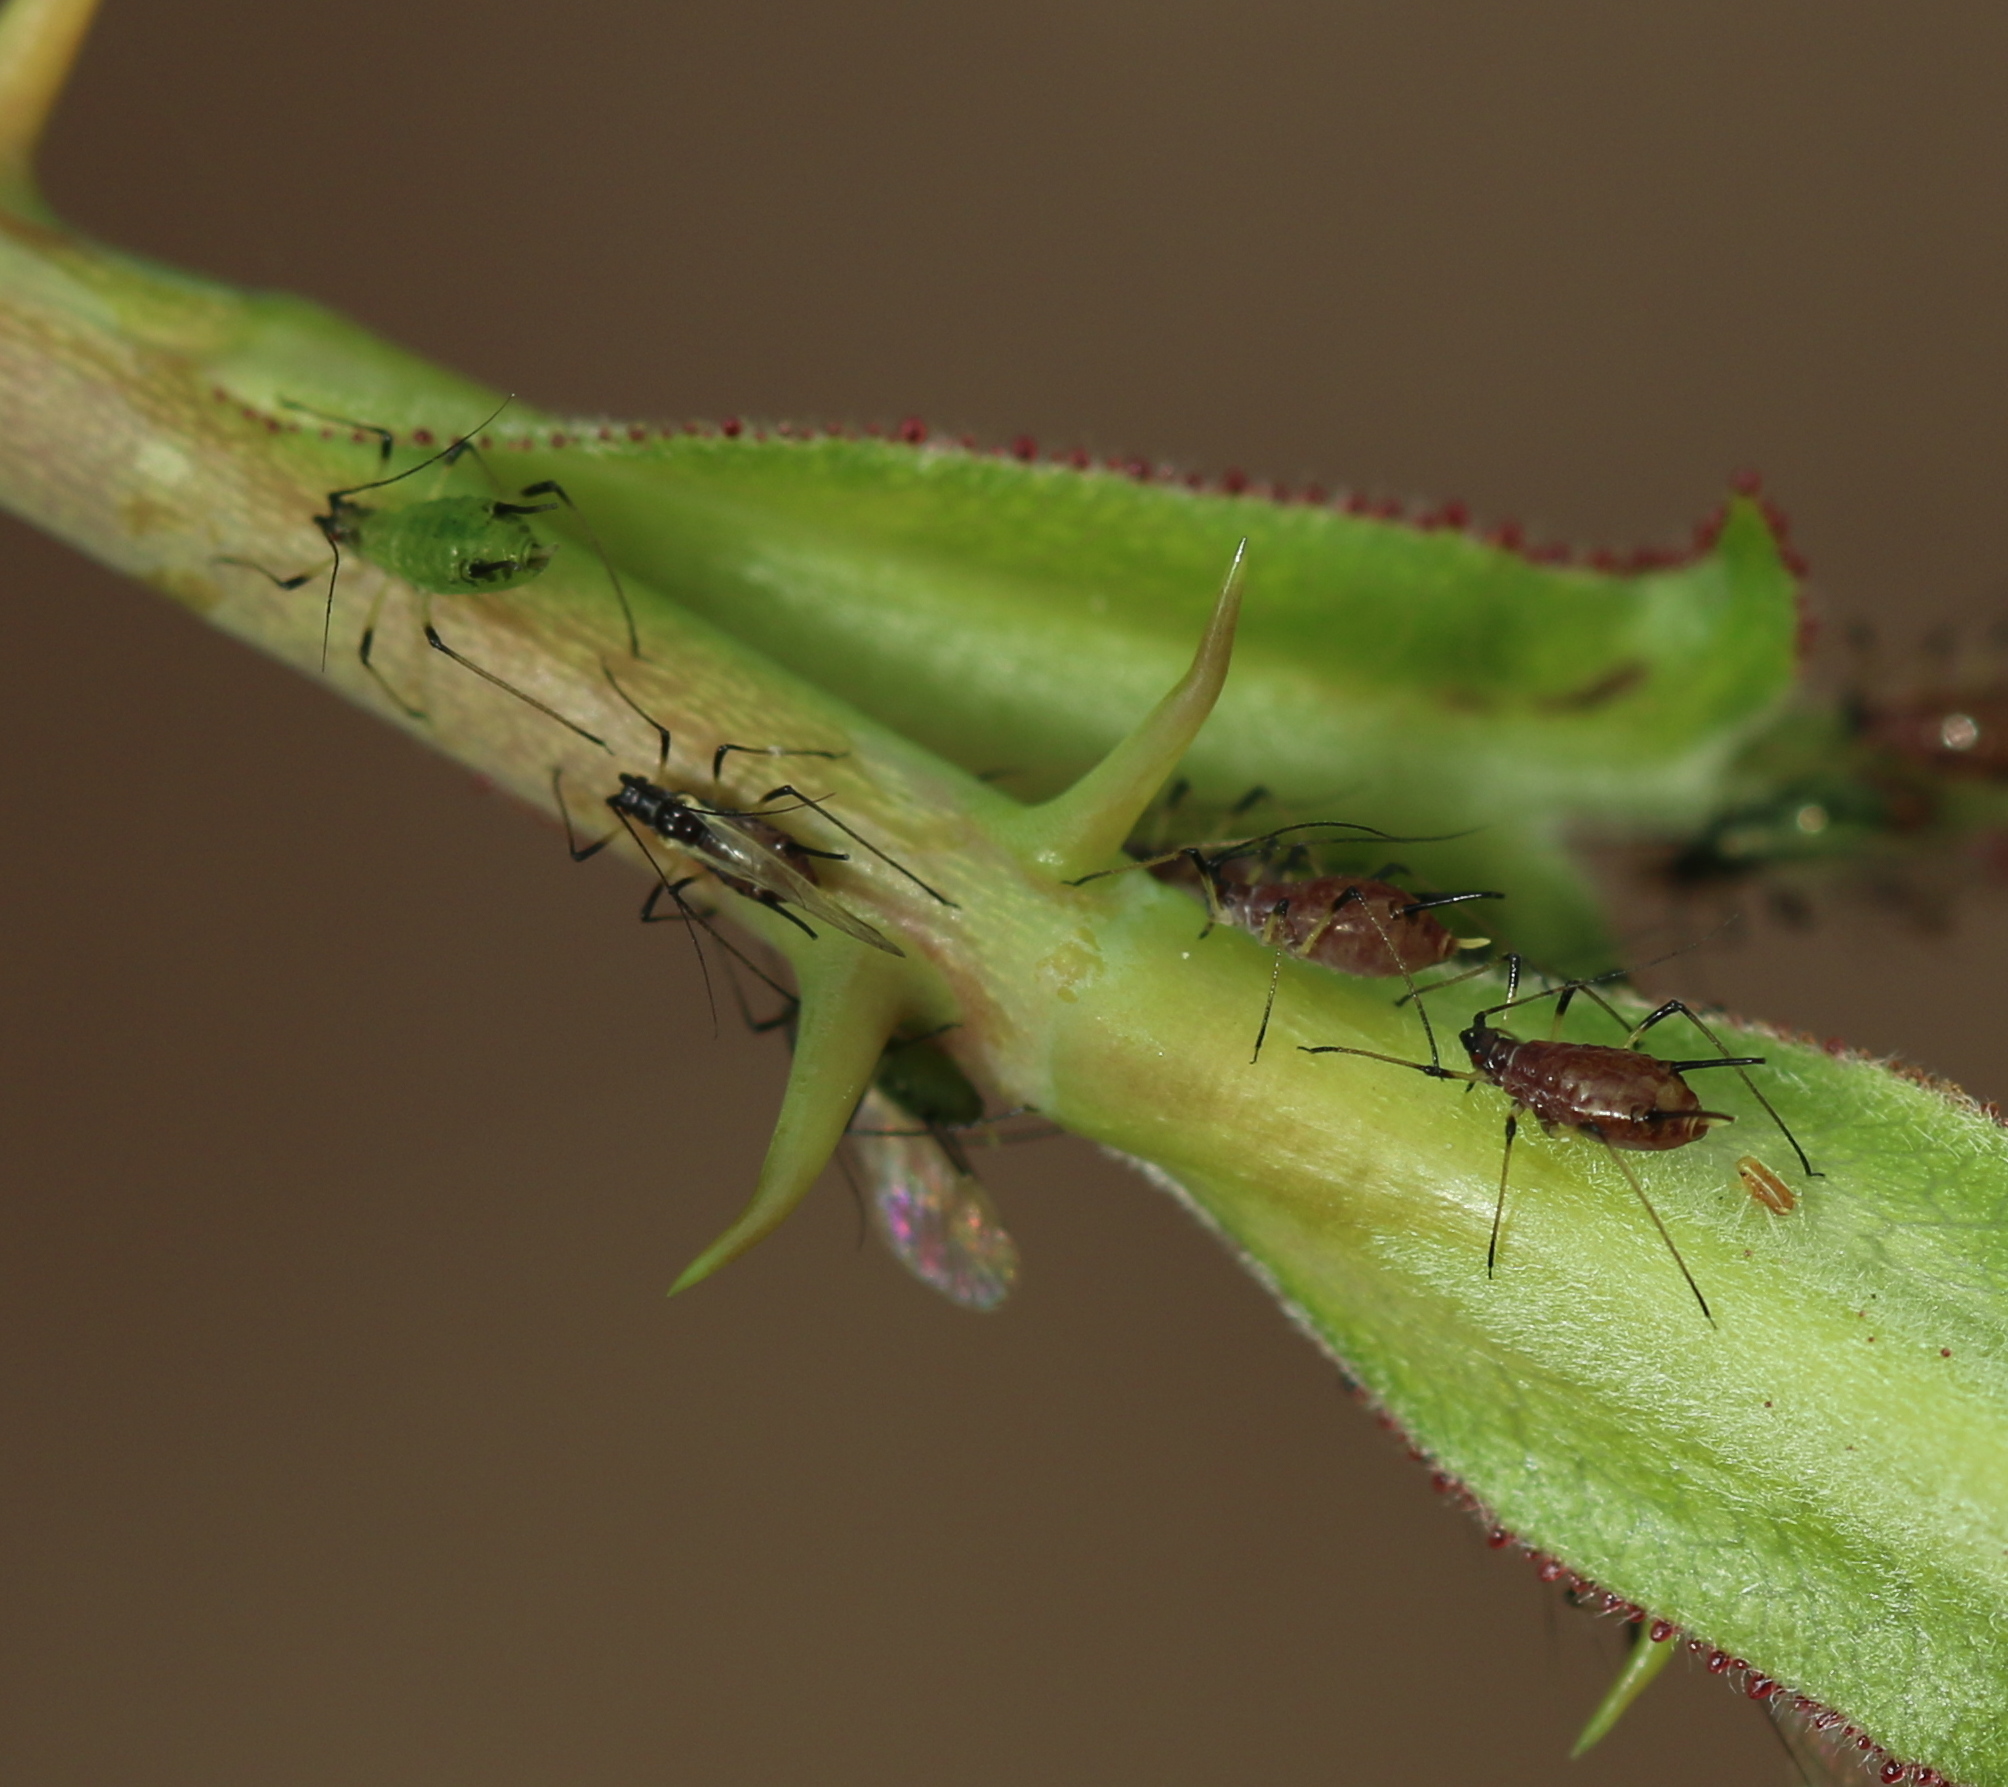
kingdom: Animalia
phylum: Arthropoda
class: Insecta
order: Hemiptera
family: Aphididae
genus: Macrosiphum
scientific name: Macrosiphum rosae
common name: Rose aphid
